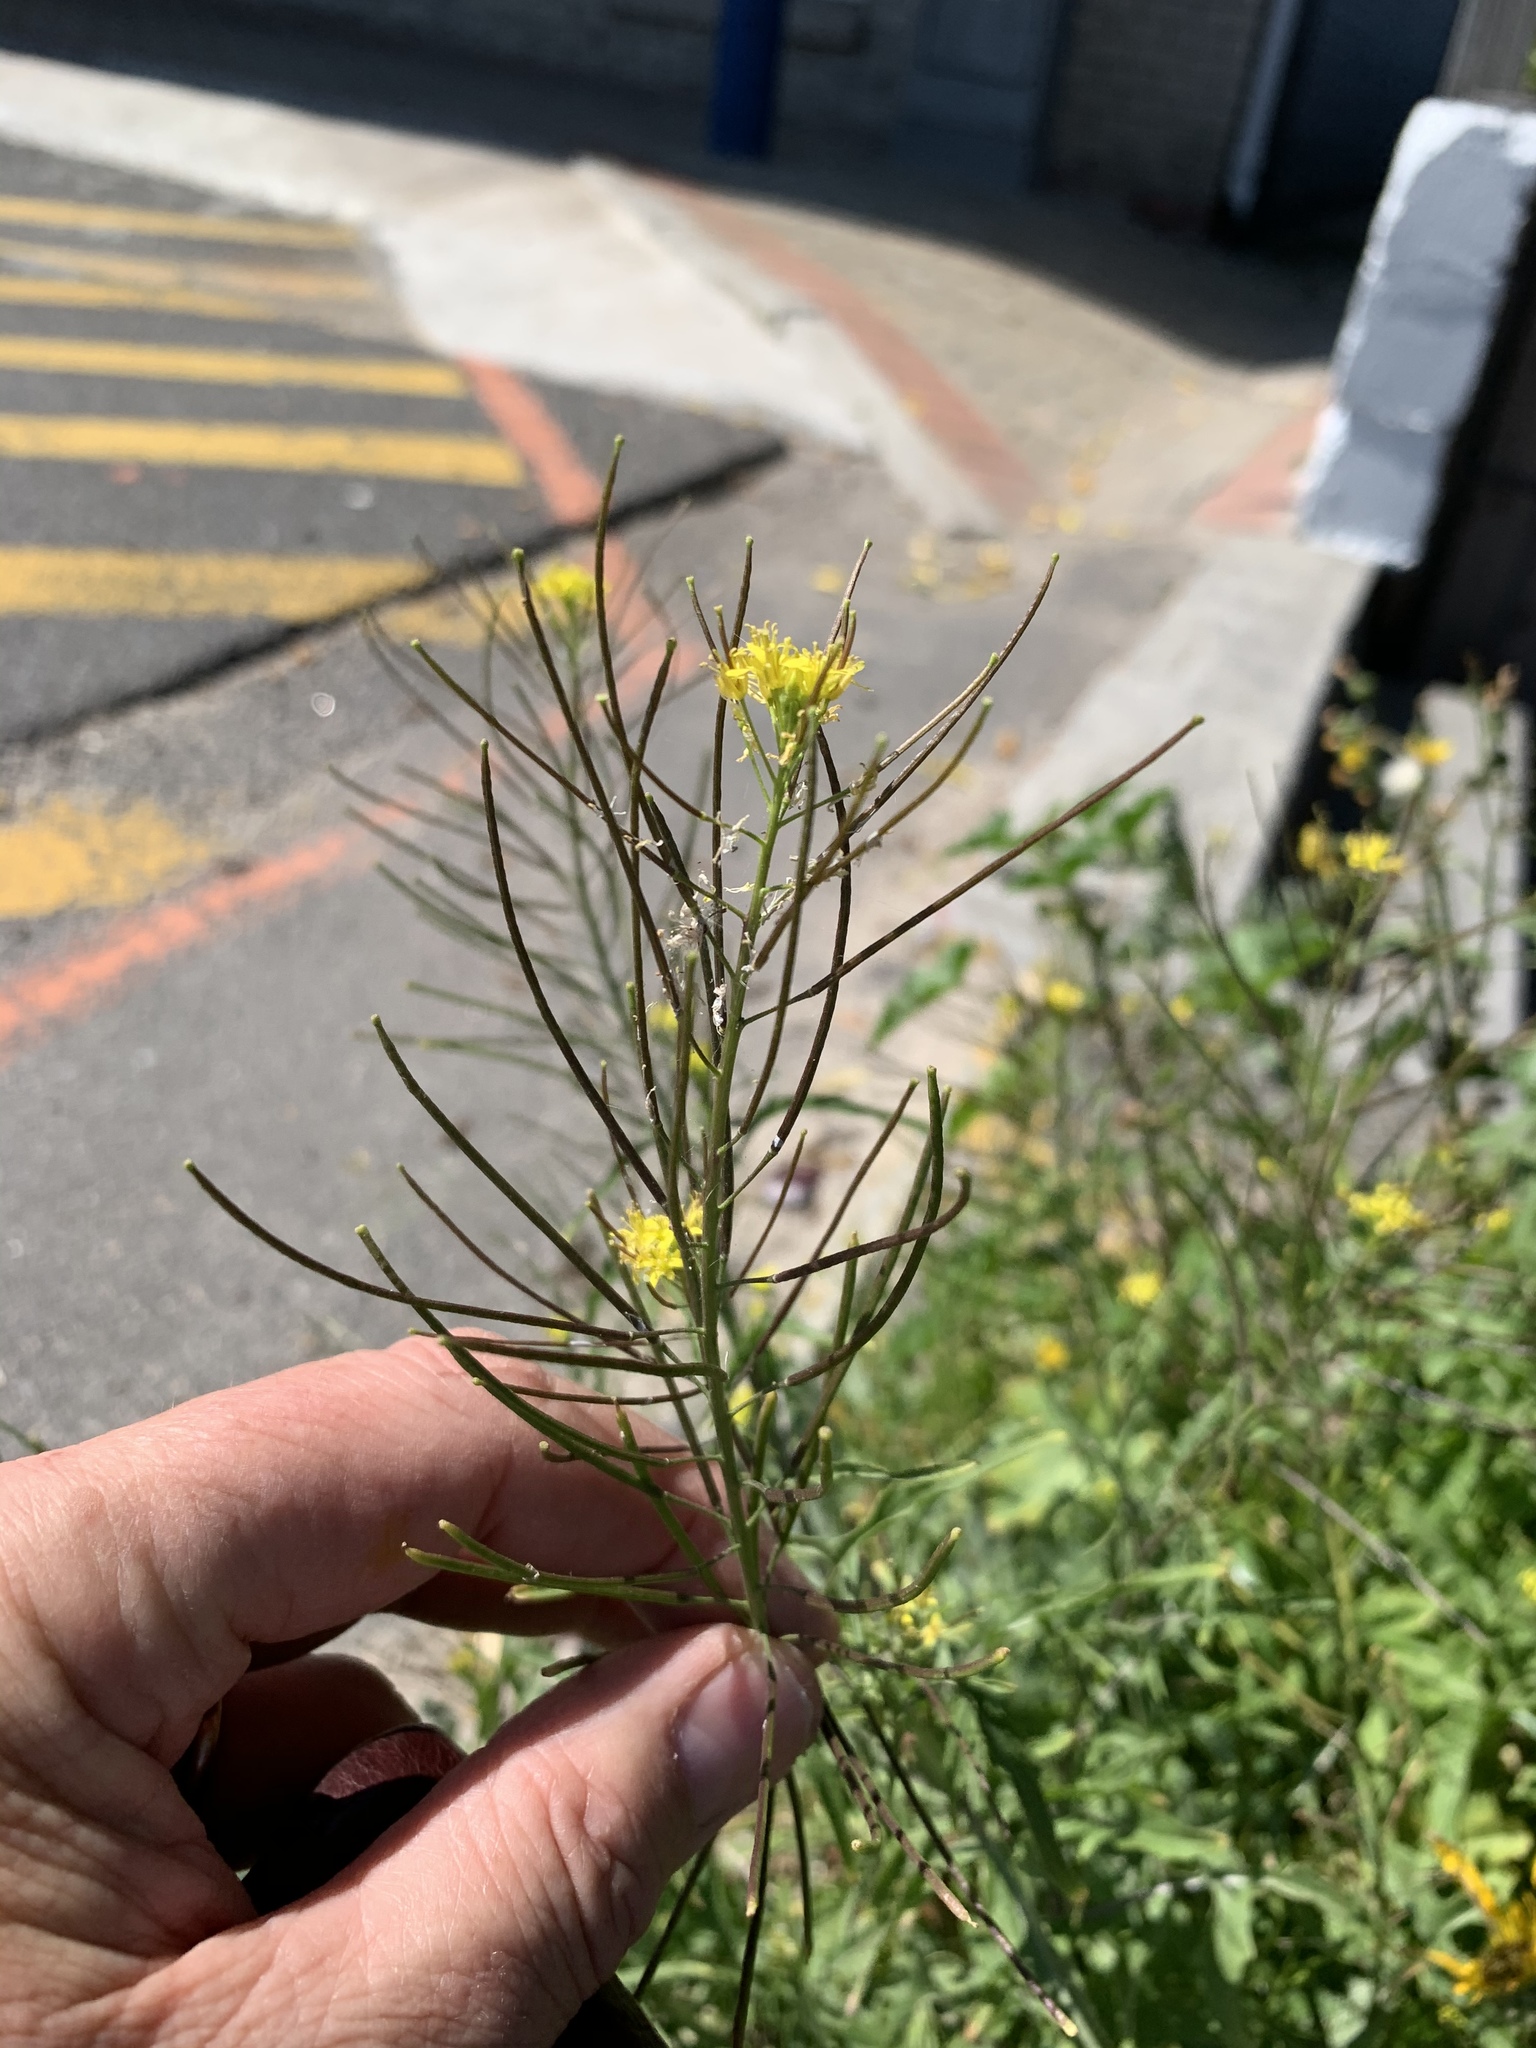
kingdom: Plantae
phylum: Tracheophyta
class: Magnoliopsida
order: Brassicales
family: Brassicaceae
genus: Sisymbrium
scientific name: Sisymbrium irio
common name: London rocket
